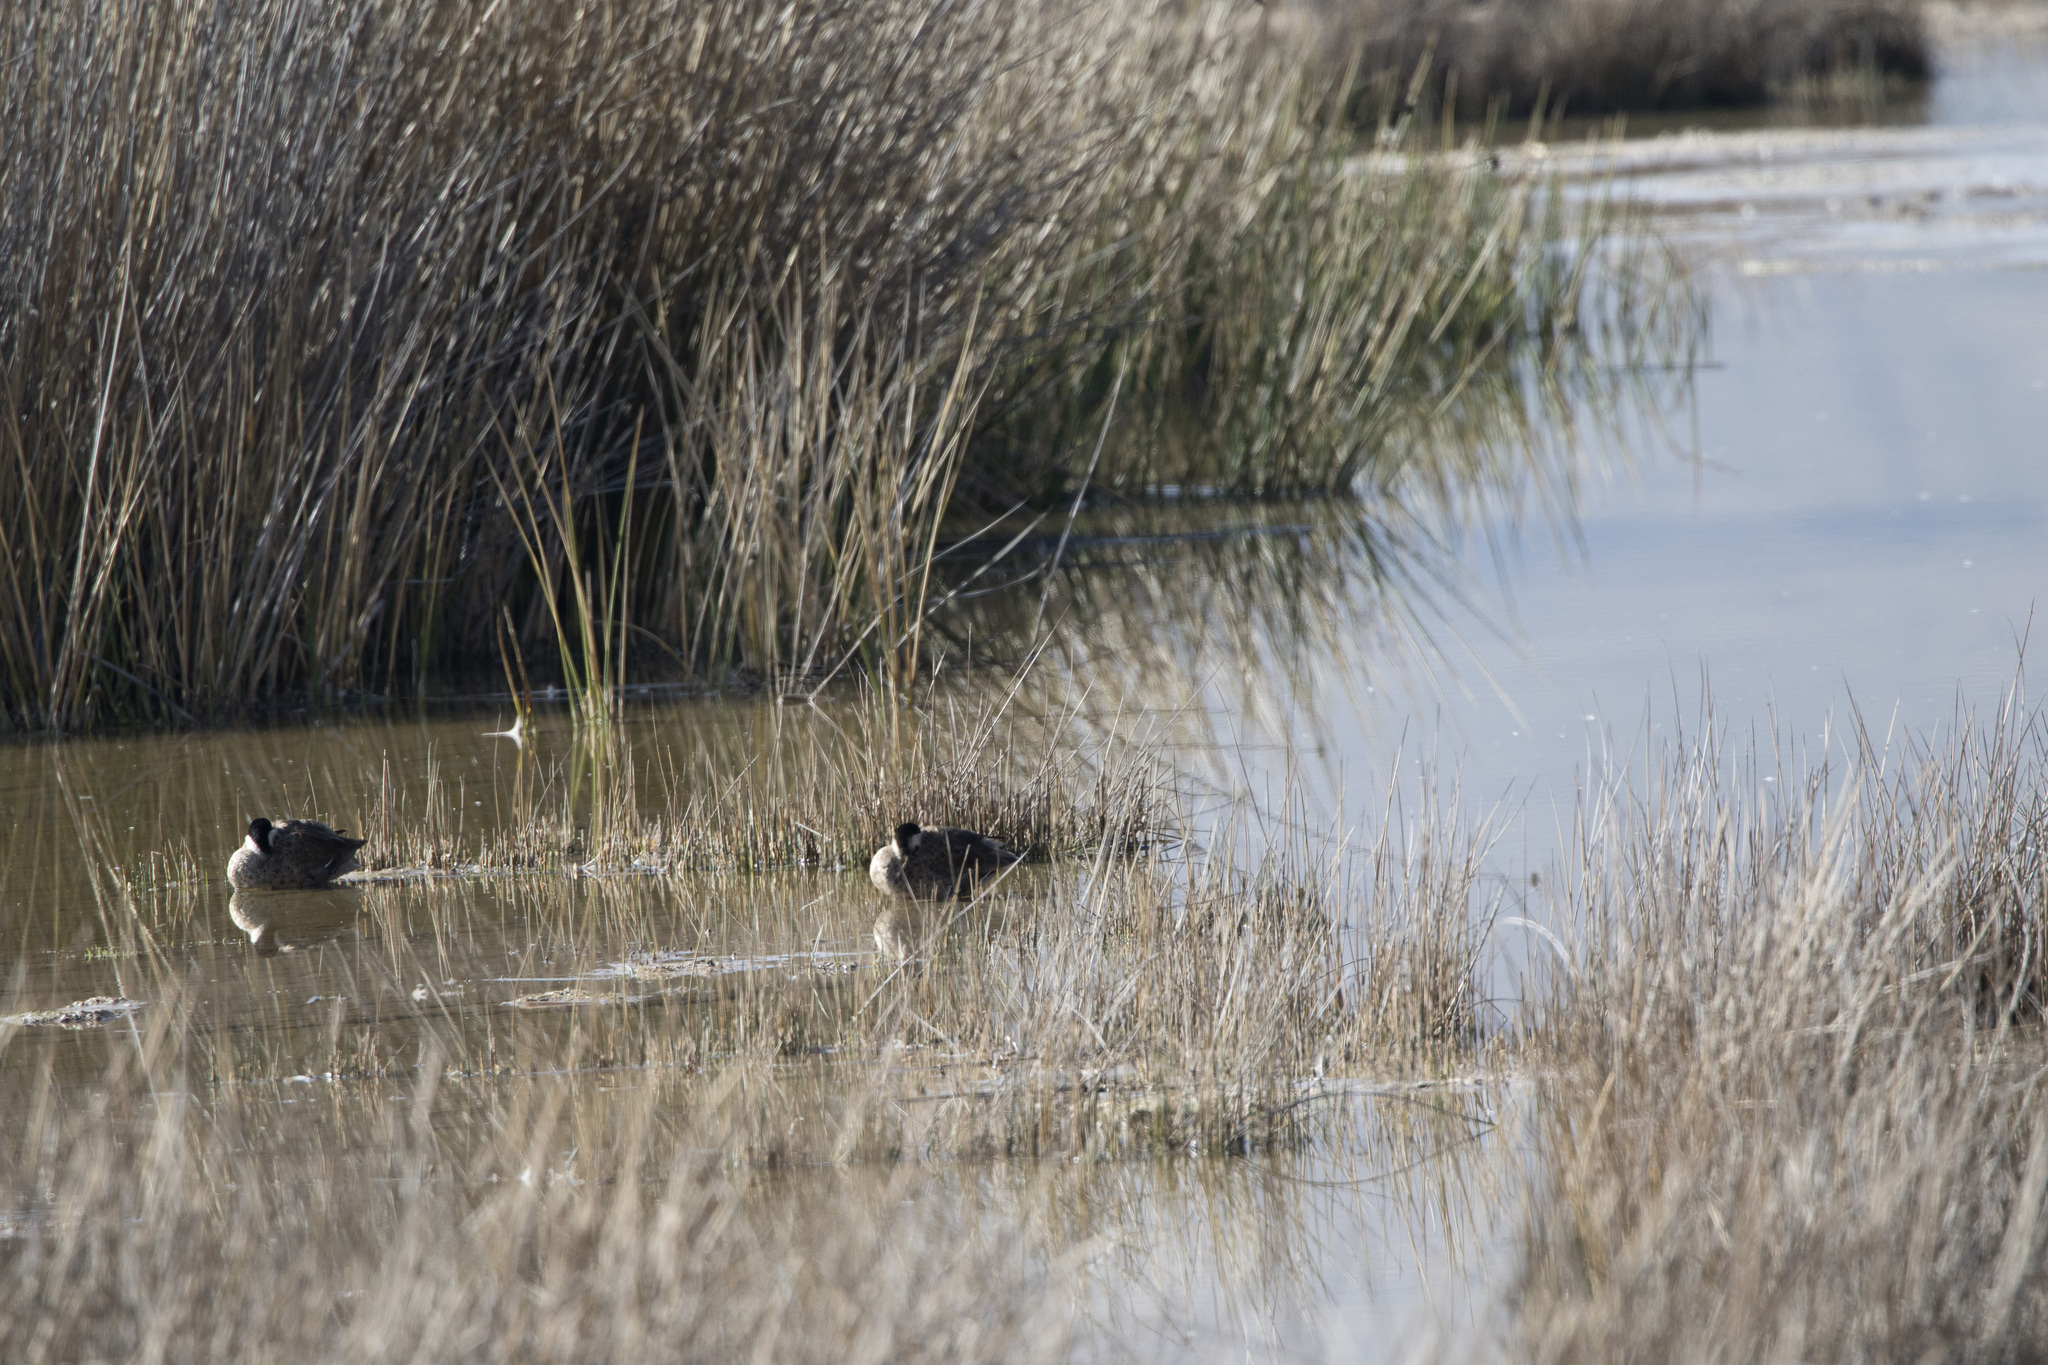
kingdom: Animalia
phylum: Chordata
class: Aves
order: Anseriformes
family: Anatidae
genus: Spatula
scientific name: Spatula puna
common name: Puna teal
